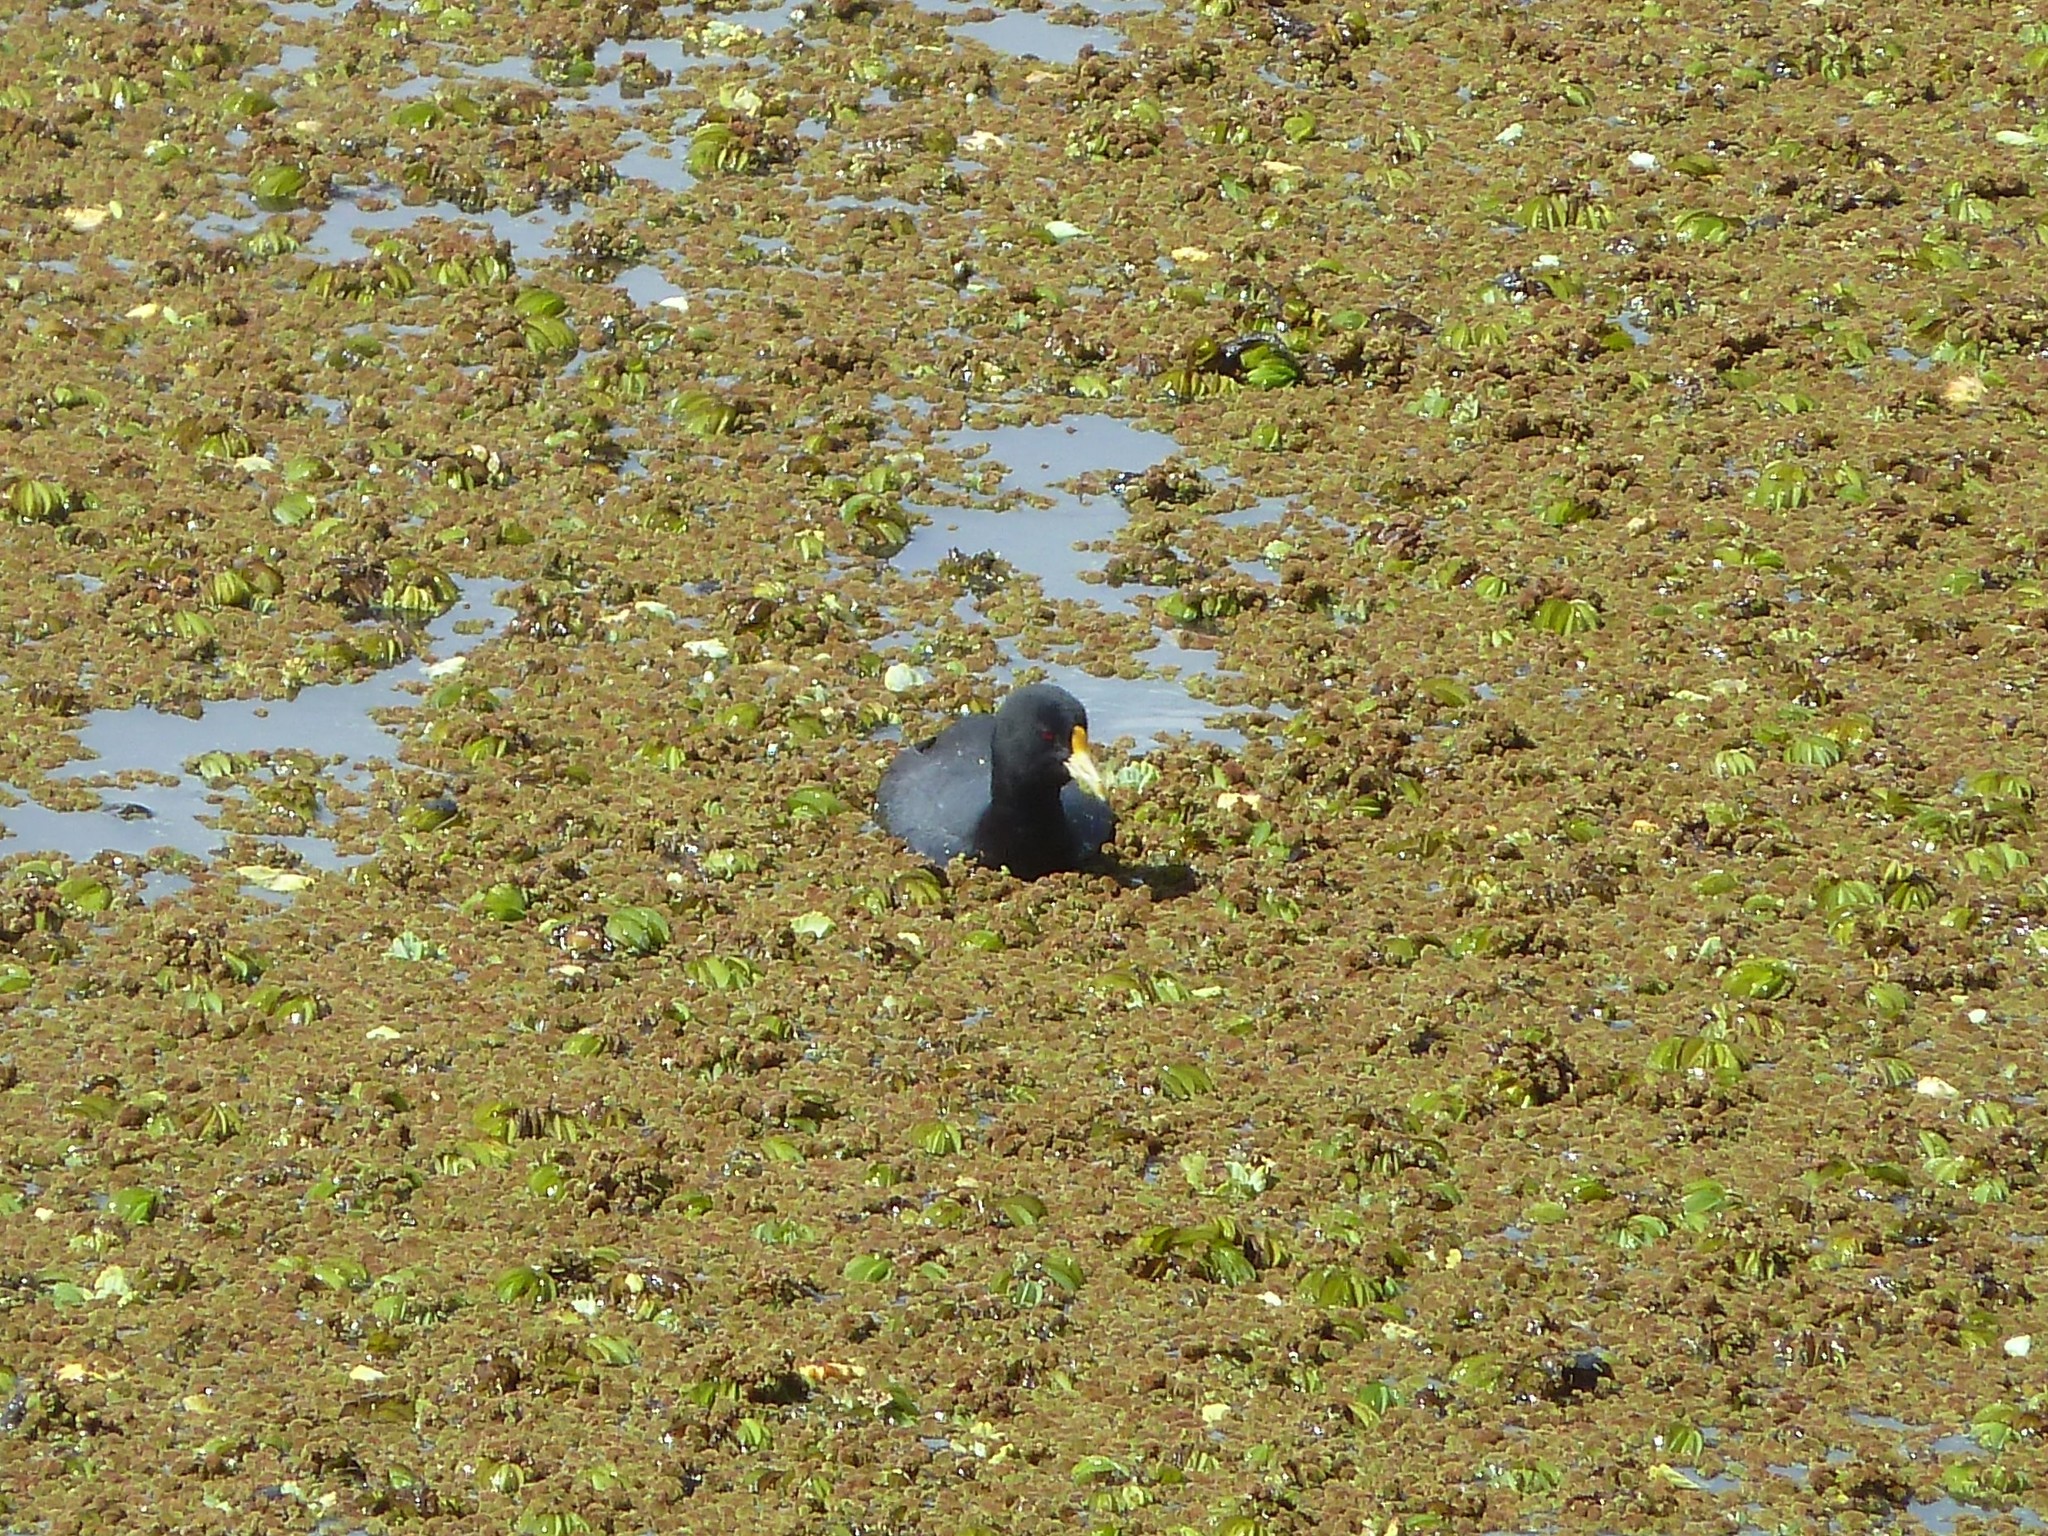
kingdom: Animalia
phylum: Chordata
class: Aves
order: Gruiformes
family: Rallidae
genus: Fulica
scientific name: Fulica leucoptera
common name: White-winged coot
